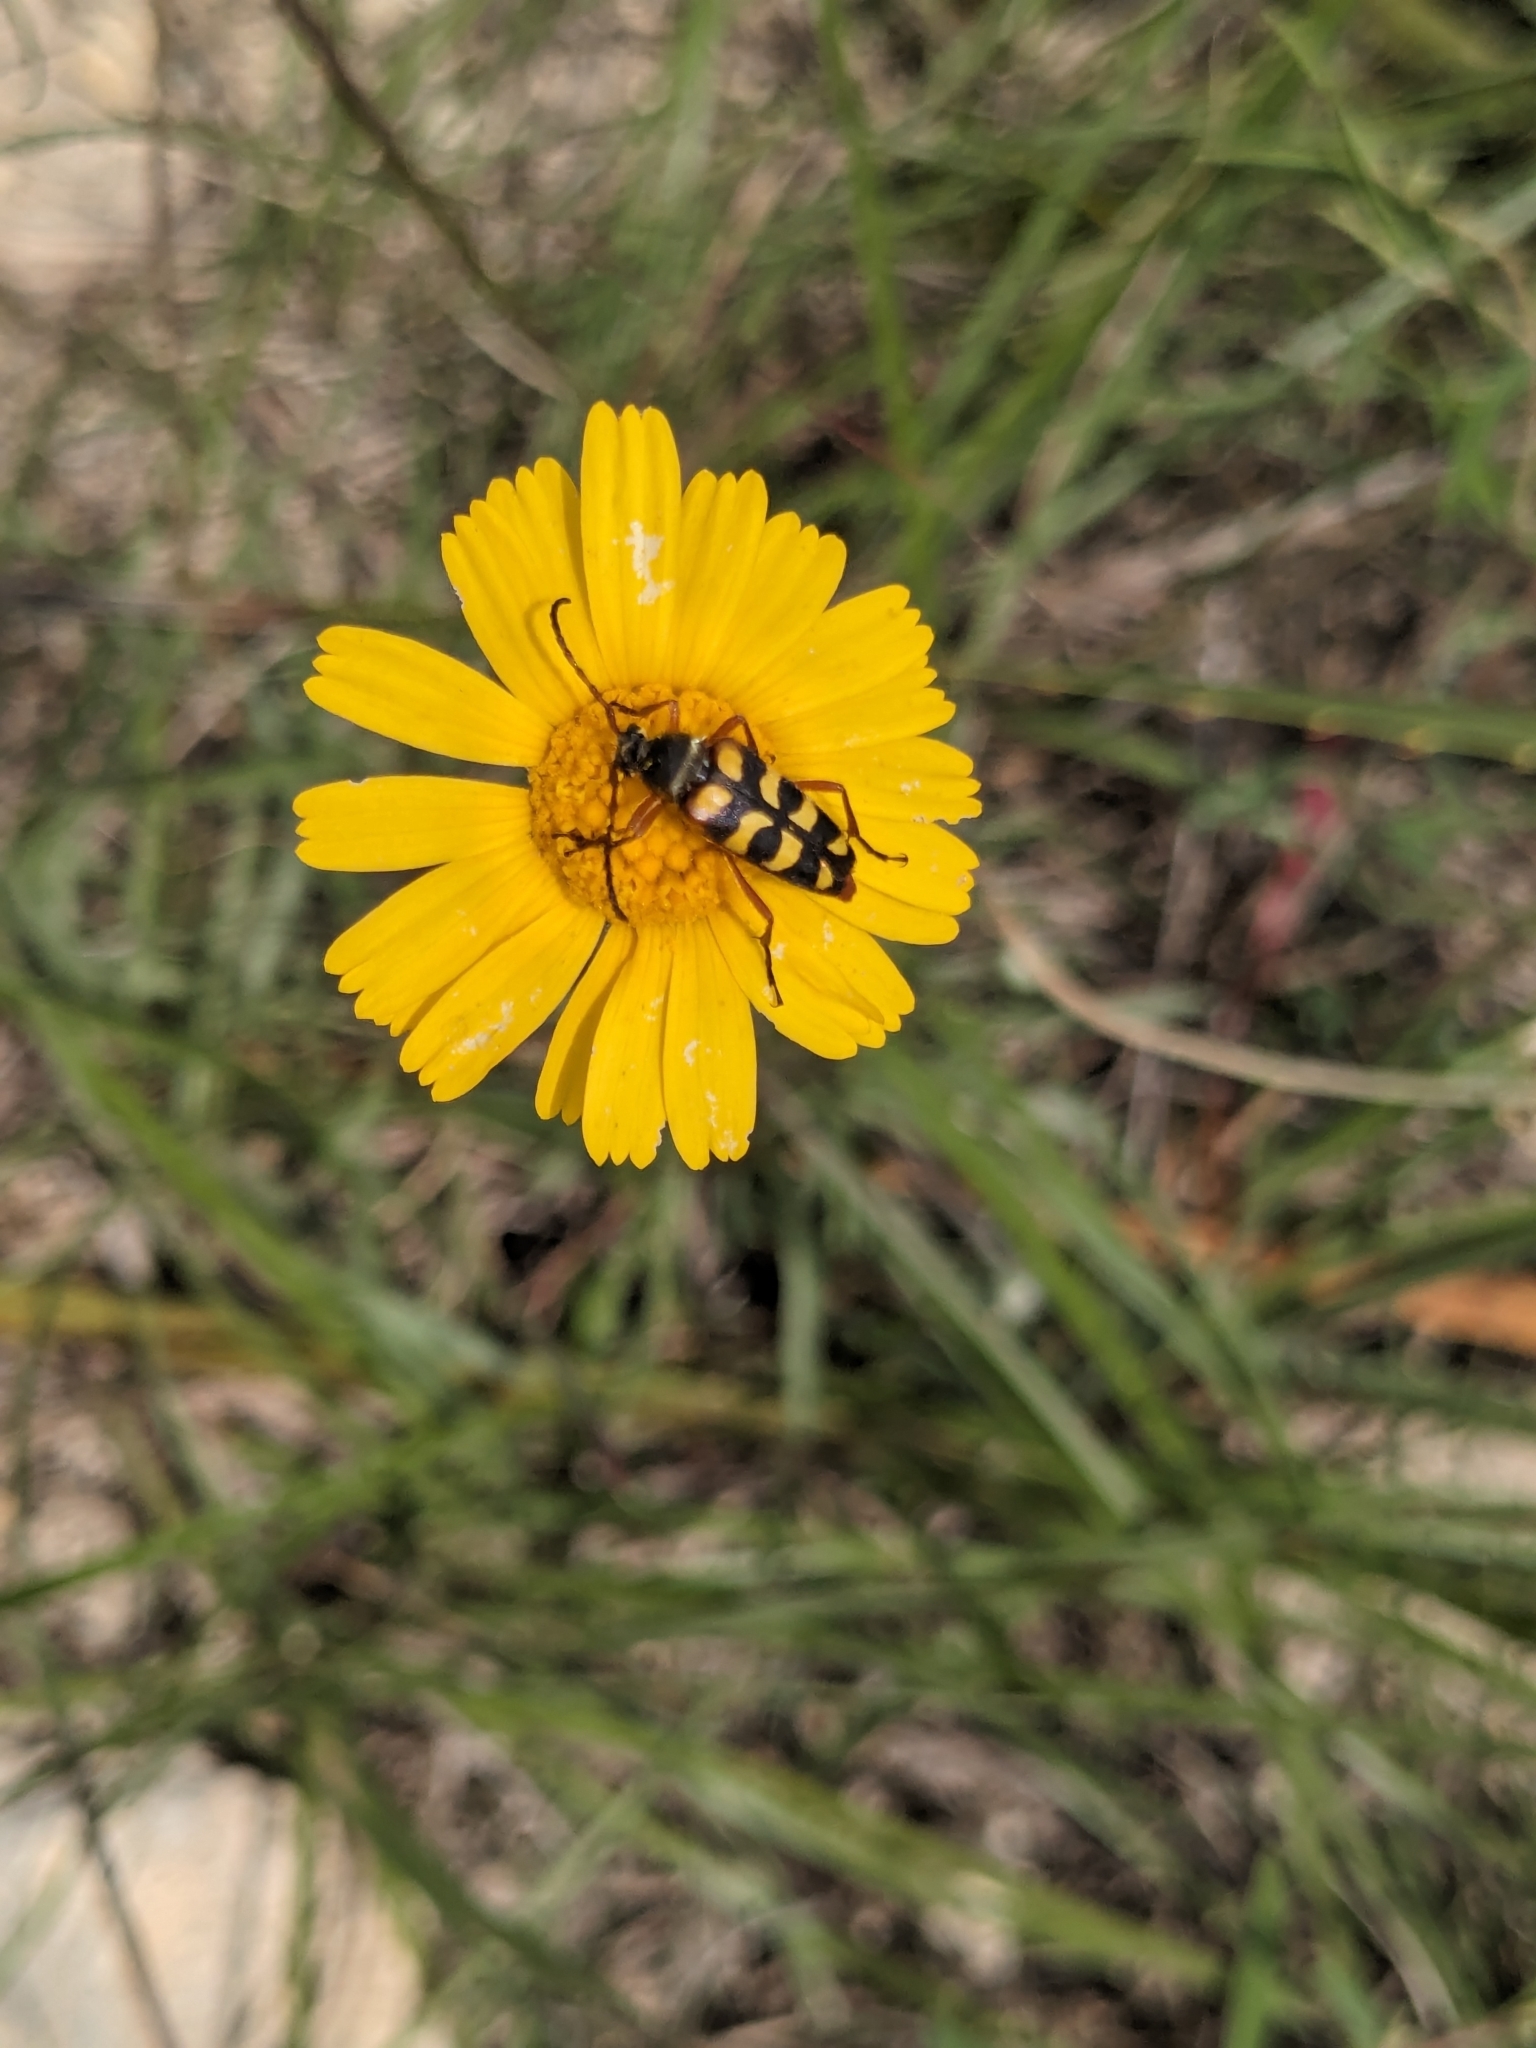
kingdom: Animalia
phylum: Arthropoda
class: Insecta
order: Coleoptera
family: Cerambycidae
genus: Typocerus
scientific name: Typocerus sinuatus
